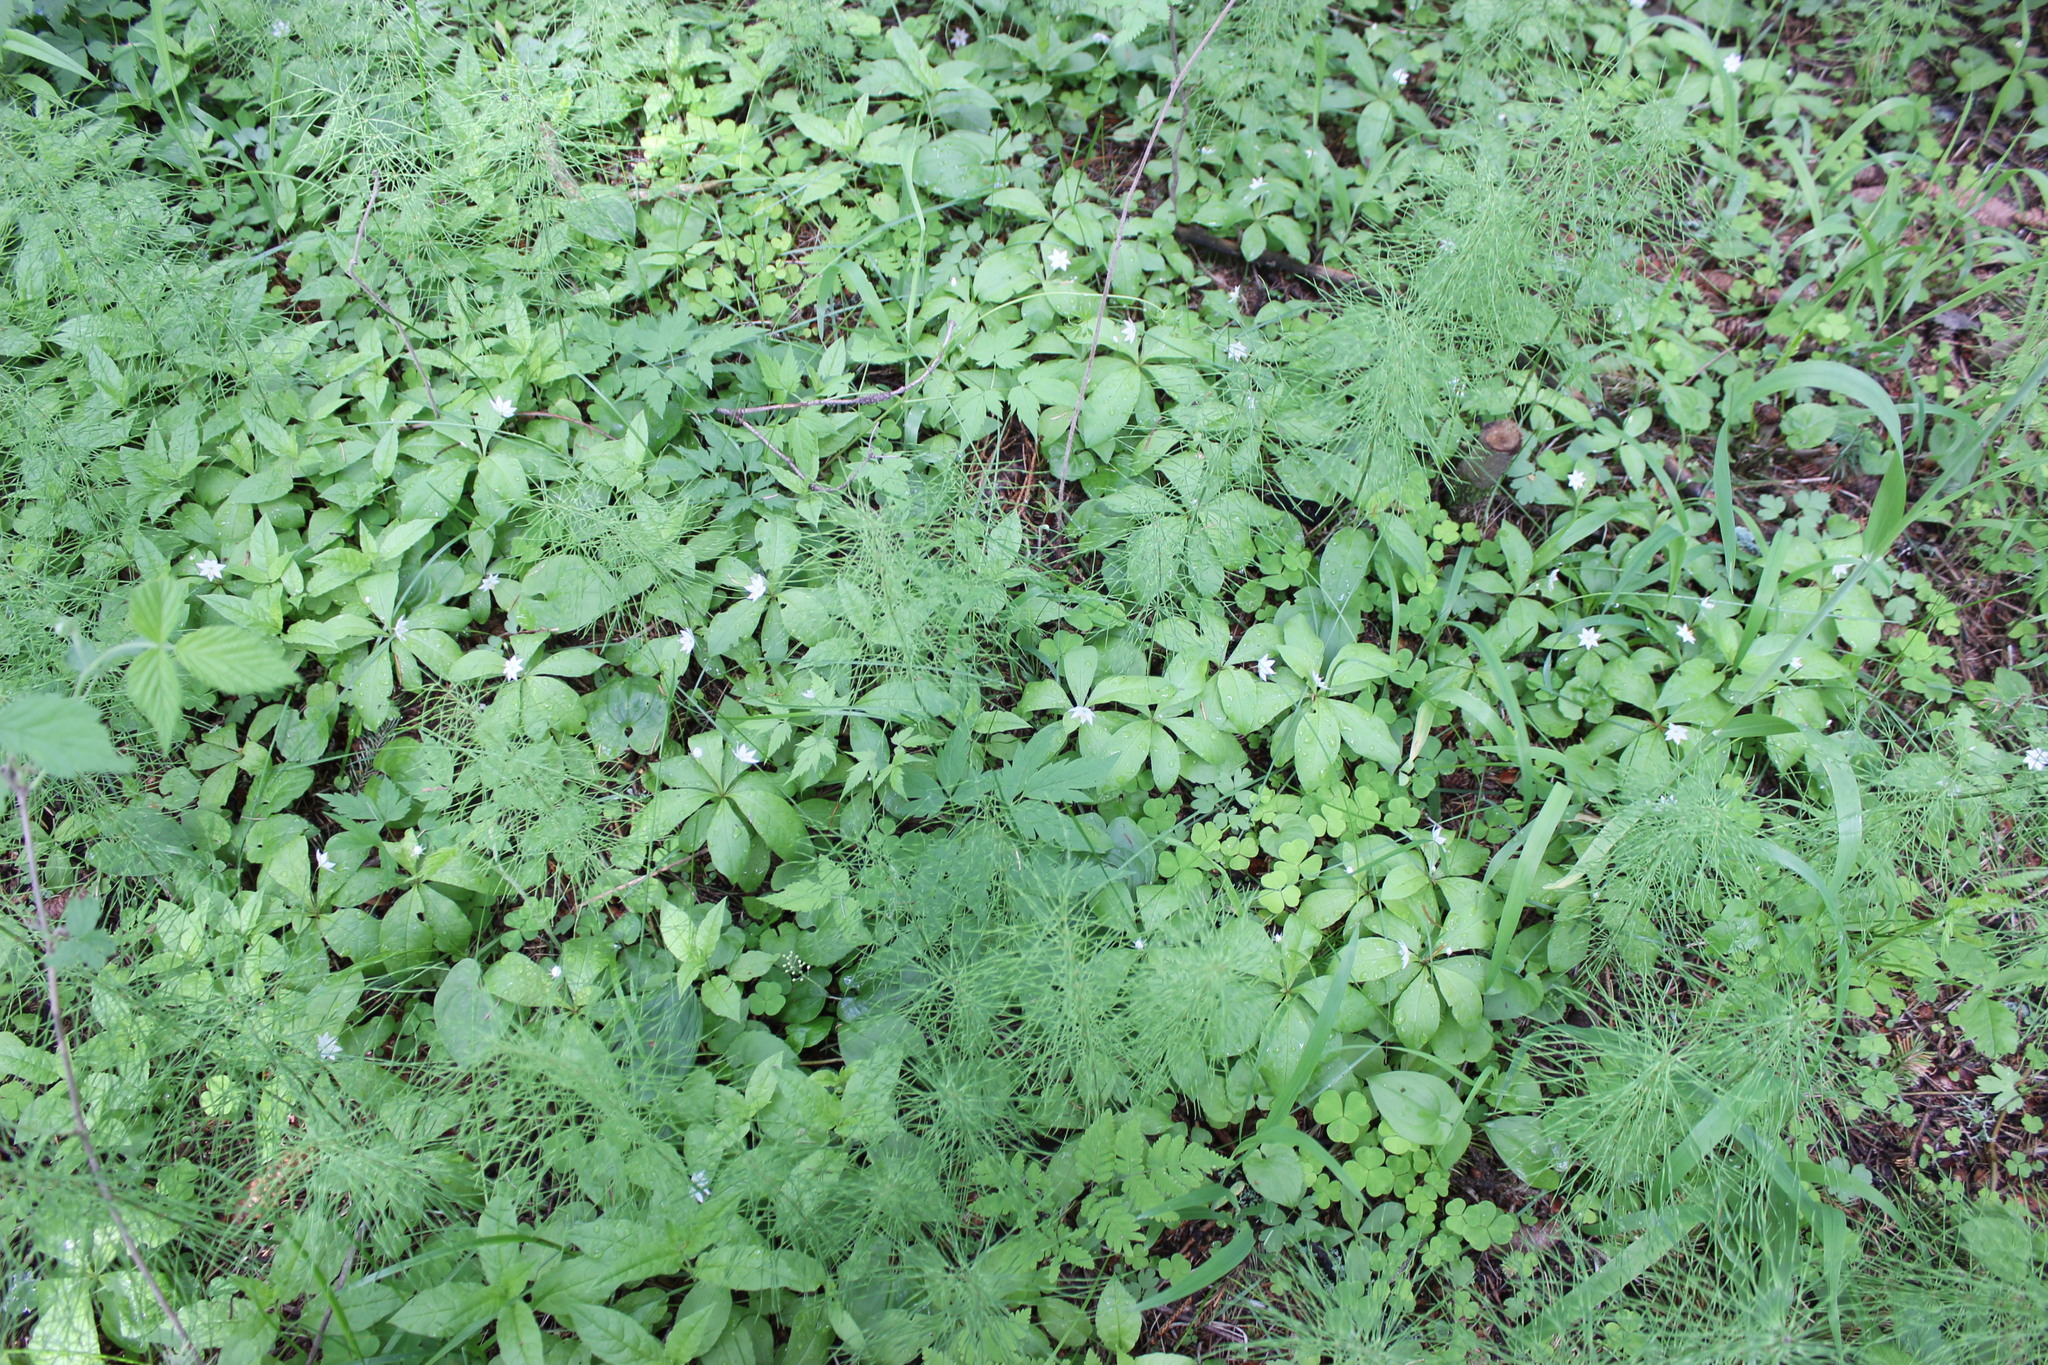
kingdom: Plantae
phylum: Tracheophyta
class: Magnoliopsida
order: Ericales
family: Primulaceae
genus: Lysimachia
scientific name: Lysimachia europaea
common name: Arctic starflower
